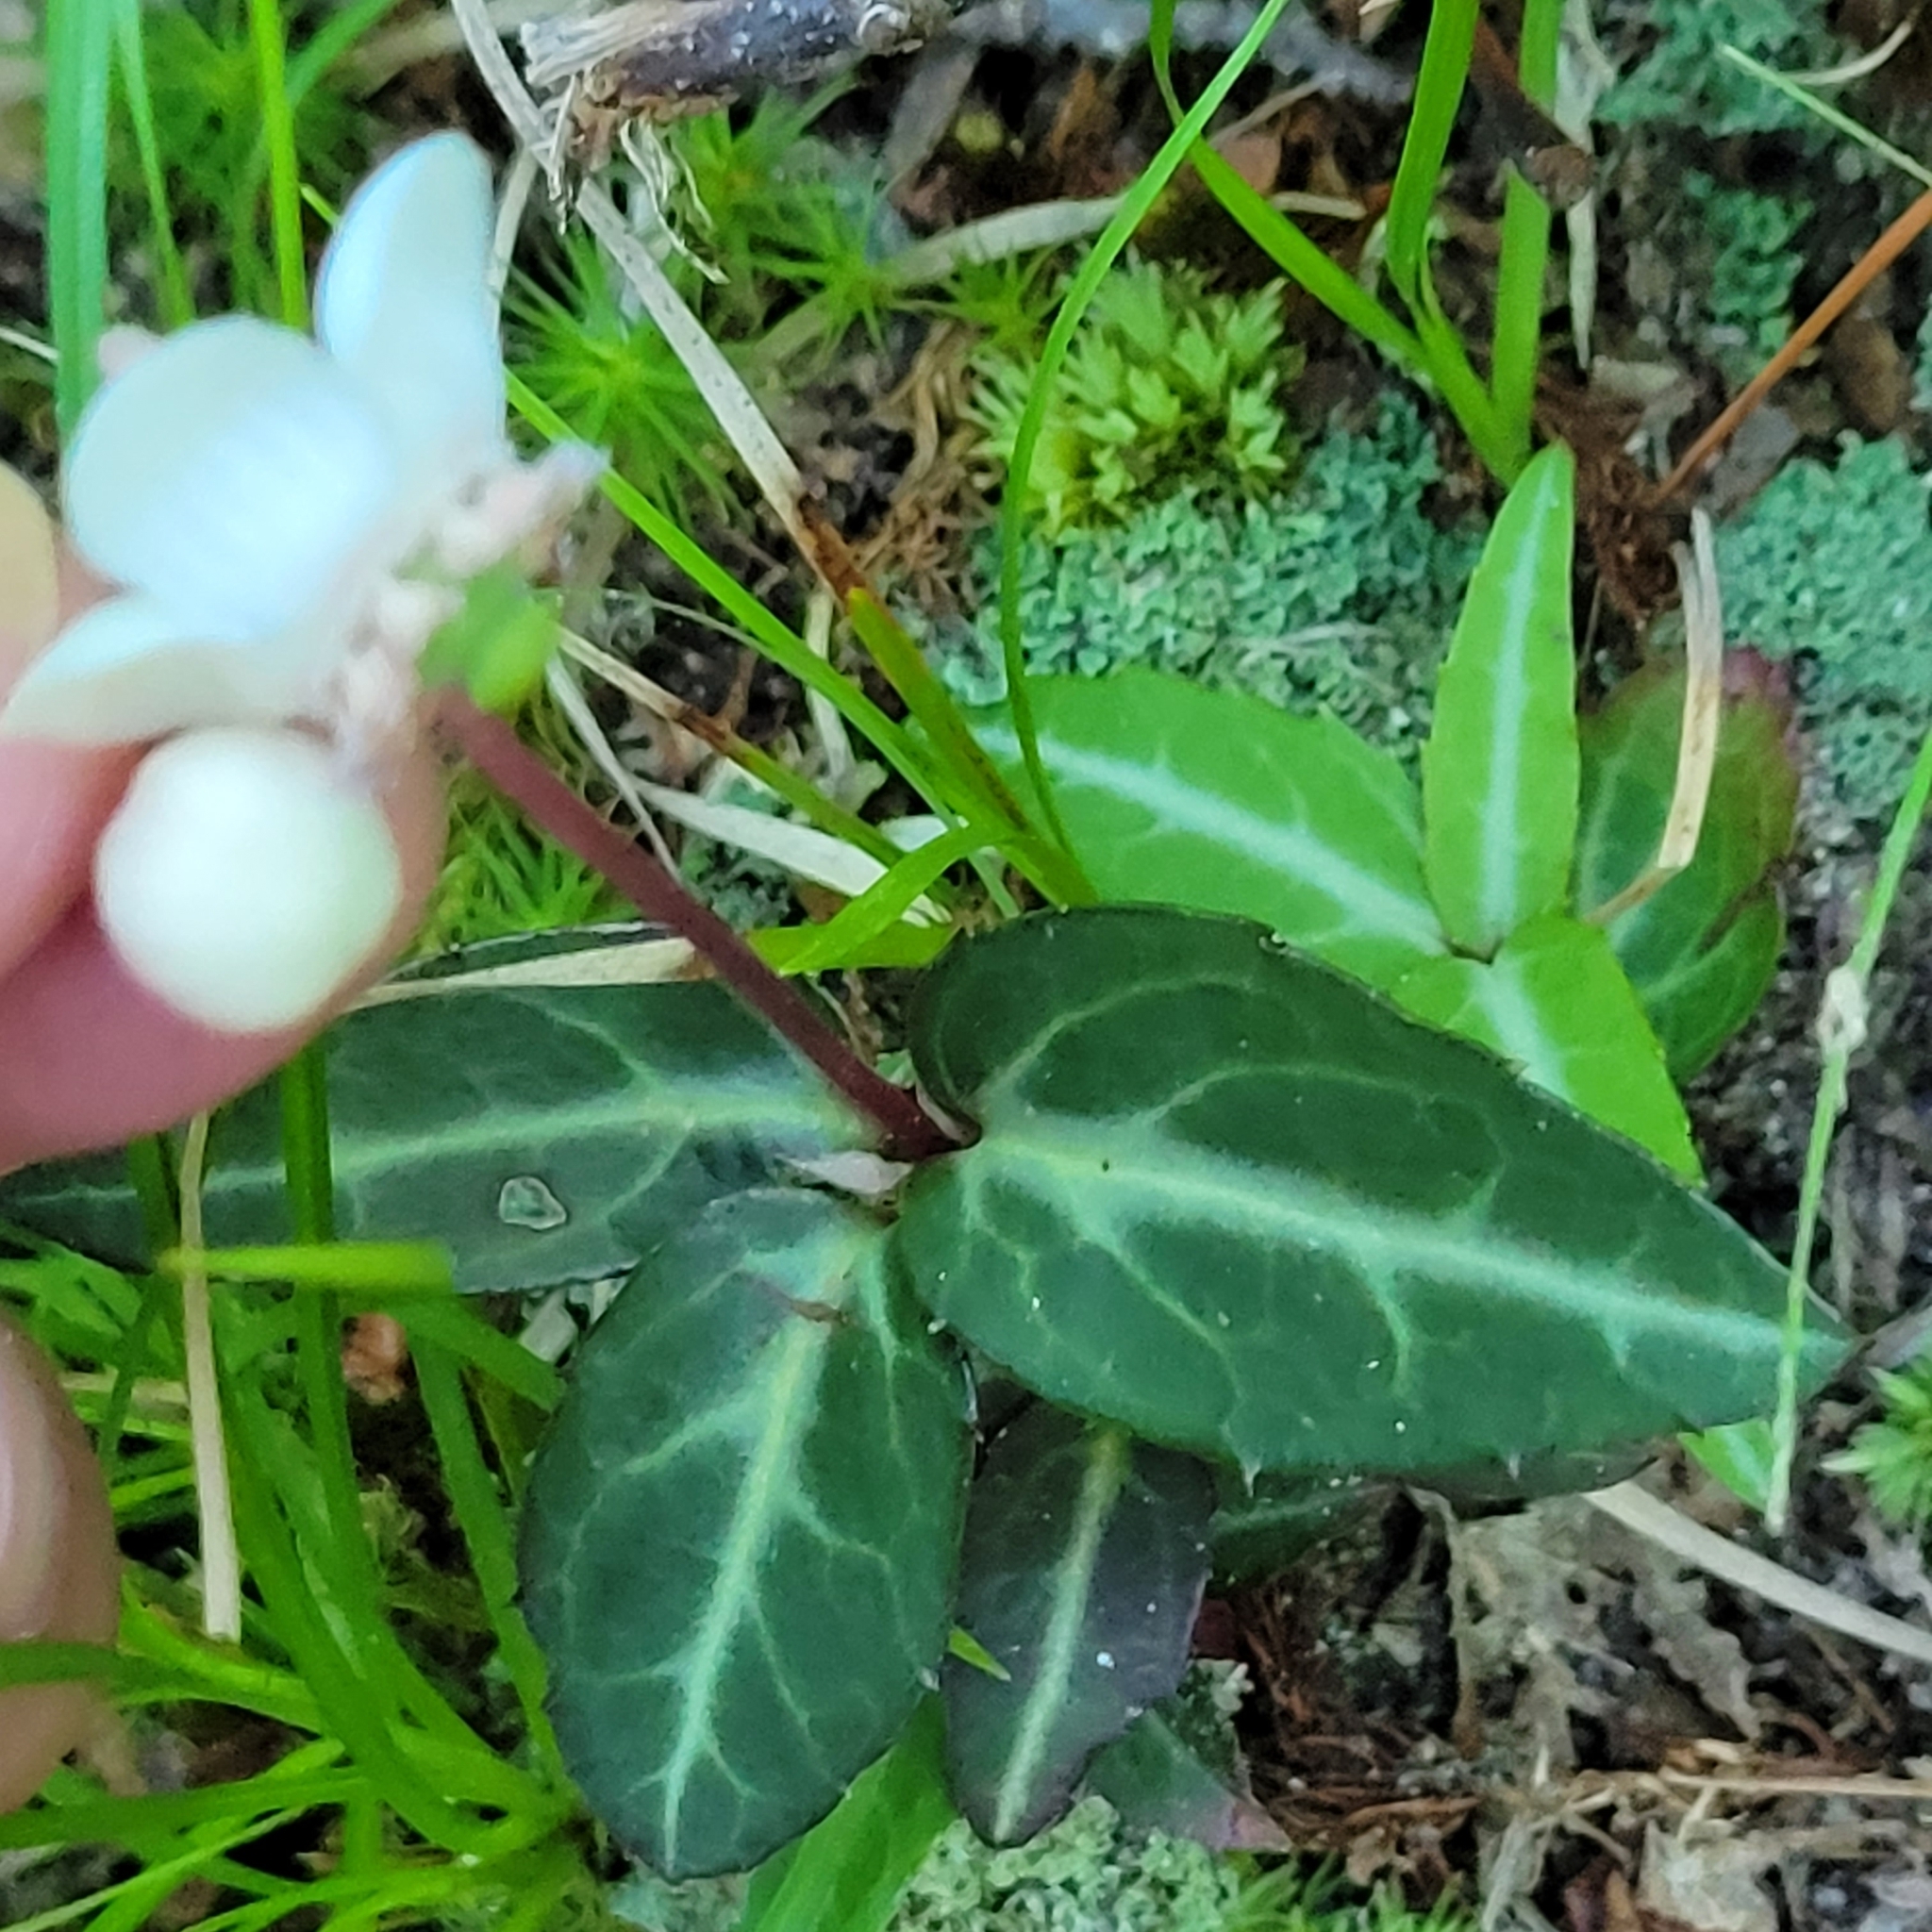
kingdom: Plantae
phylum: Tracheophyta
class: Magnoliopsida
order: Ericales
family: Ericaceae
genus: Chimaphila
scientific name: Chimaphila maculata
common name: Spotted pipsissewa
